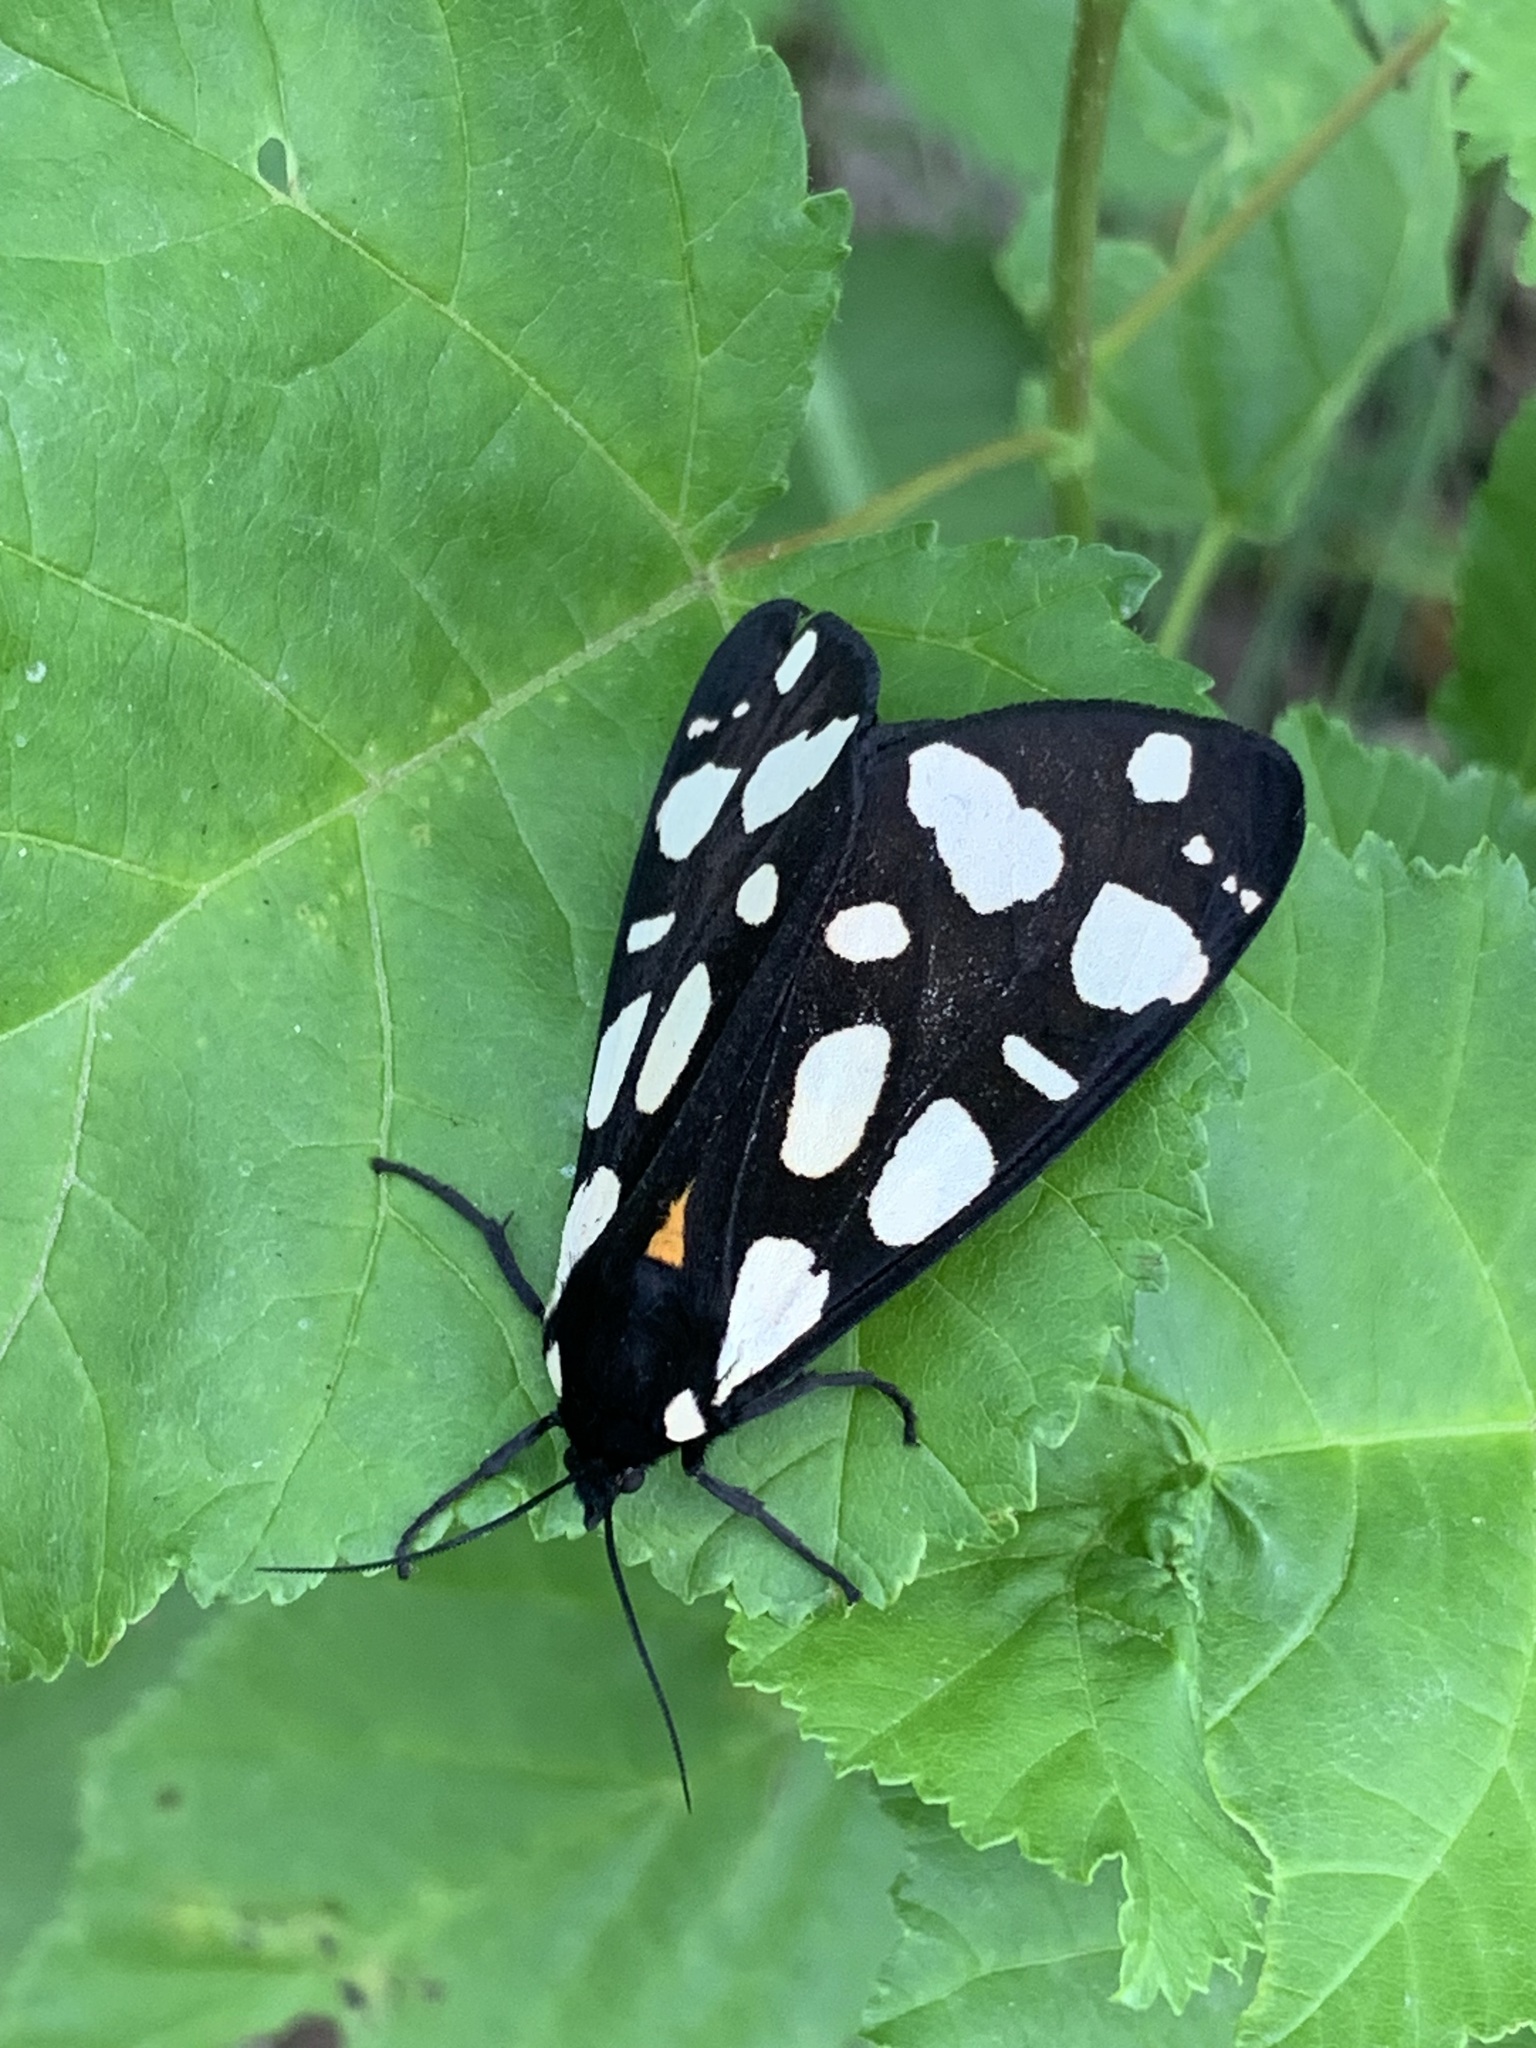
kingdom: Animalia
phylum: Arthropoda
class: Insecta
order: Lepidoptera
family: Erebidae
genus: Epicallia
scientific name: Epicallia villica
